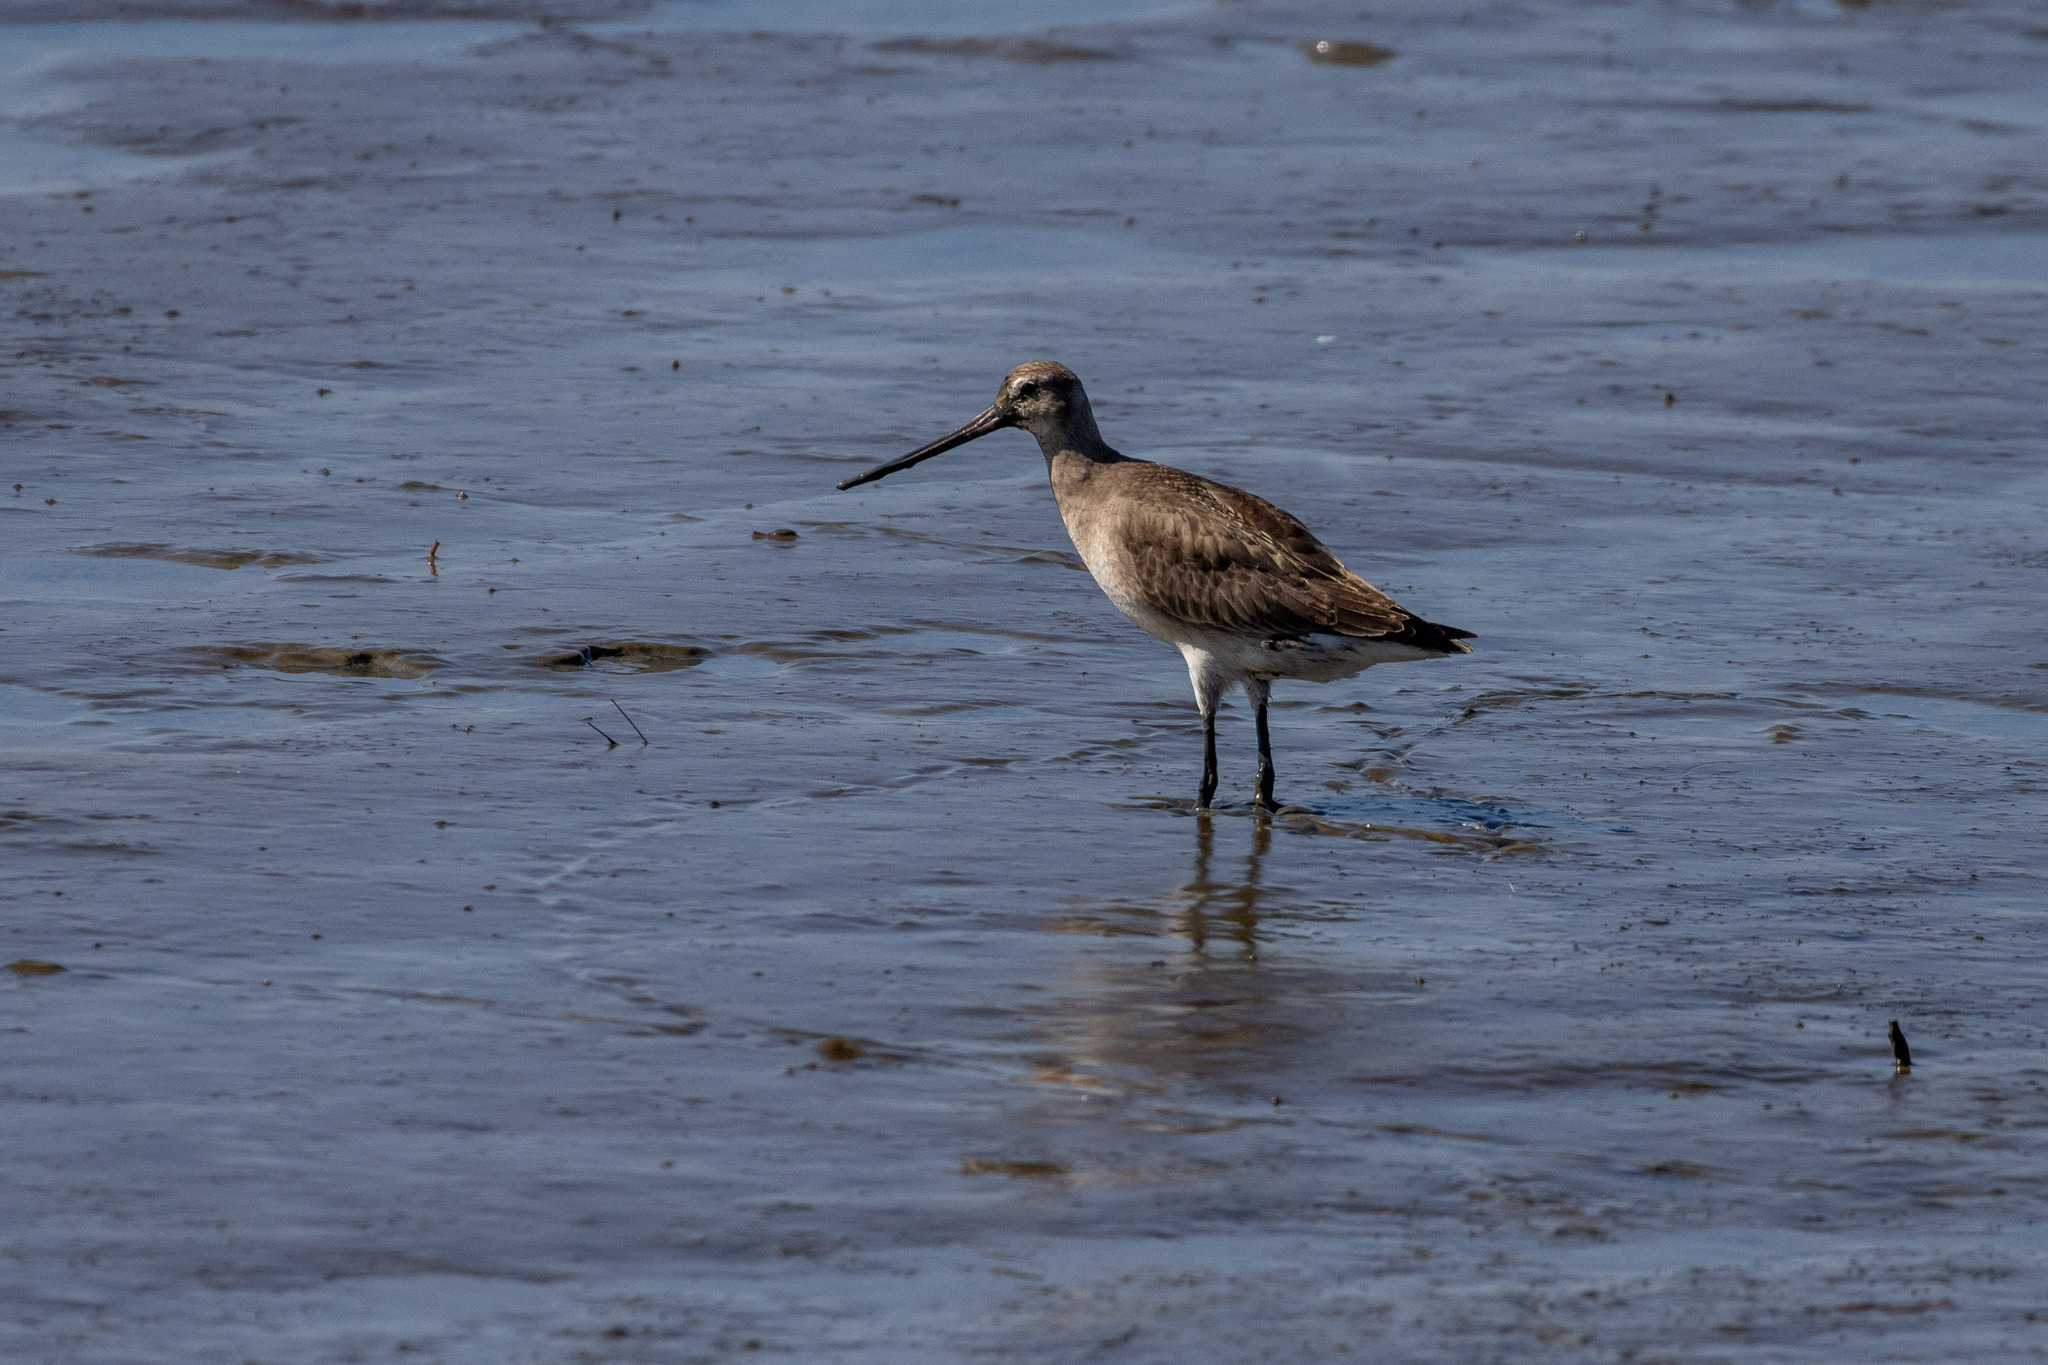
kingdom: Animalia
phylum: Chordata
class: Aves
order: Charadriiformes
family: Scolopacidae
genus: Limosa
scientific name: Limosa haemastica
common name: Hudsonian godwit
